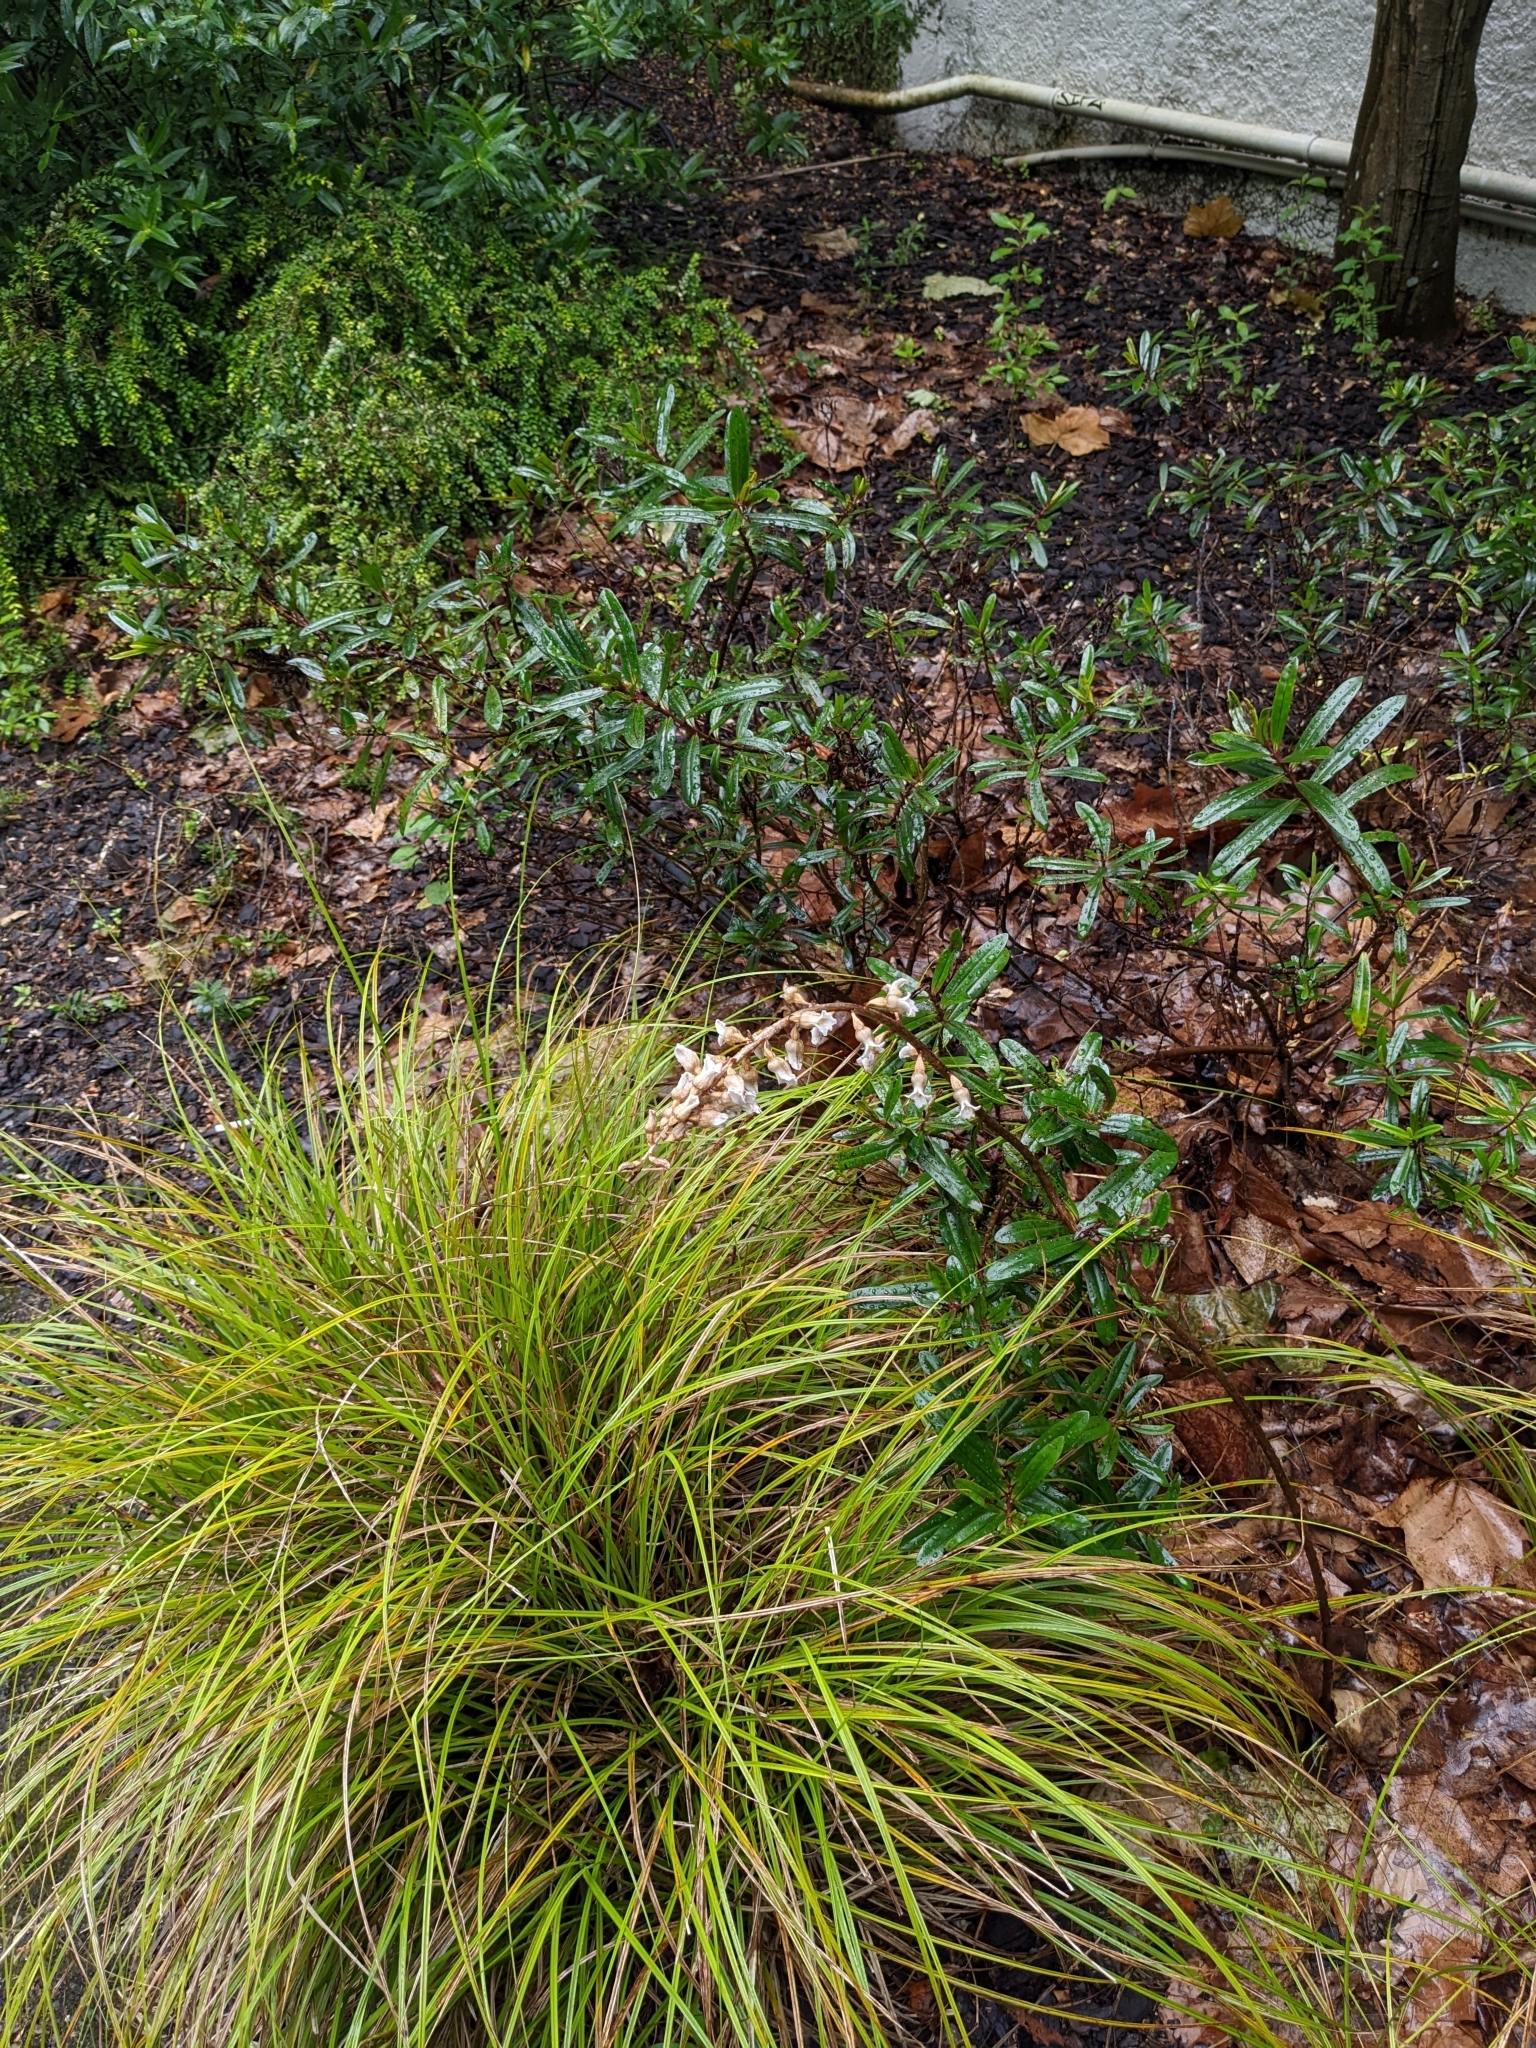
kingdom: Plantae
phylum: Tracheophyta
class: Liliopsida
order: Asparagales
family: Orchidaceae
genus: Gastrodia
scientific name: Gastrodia sesamoides
